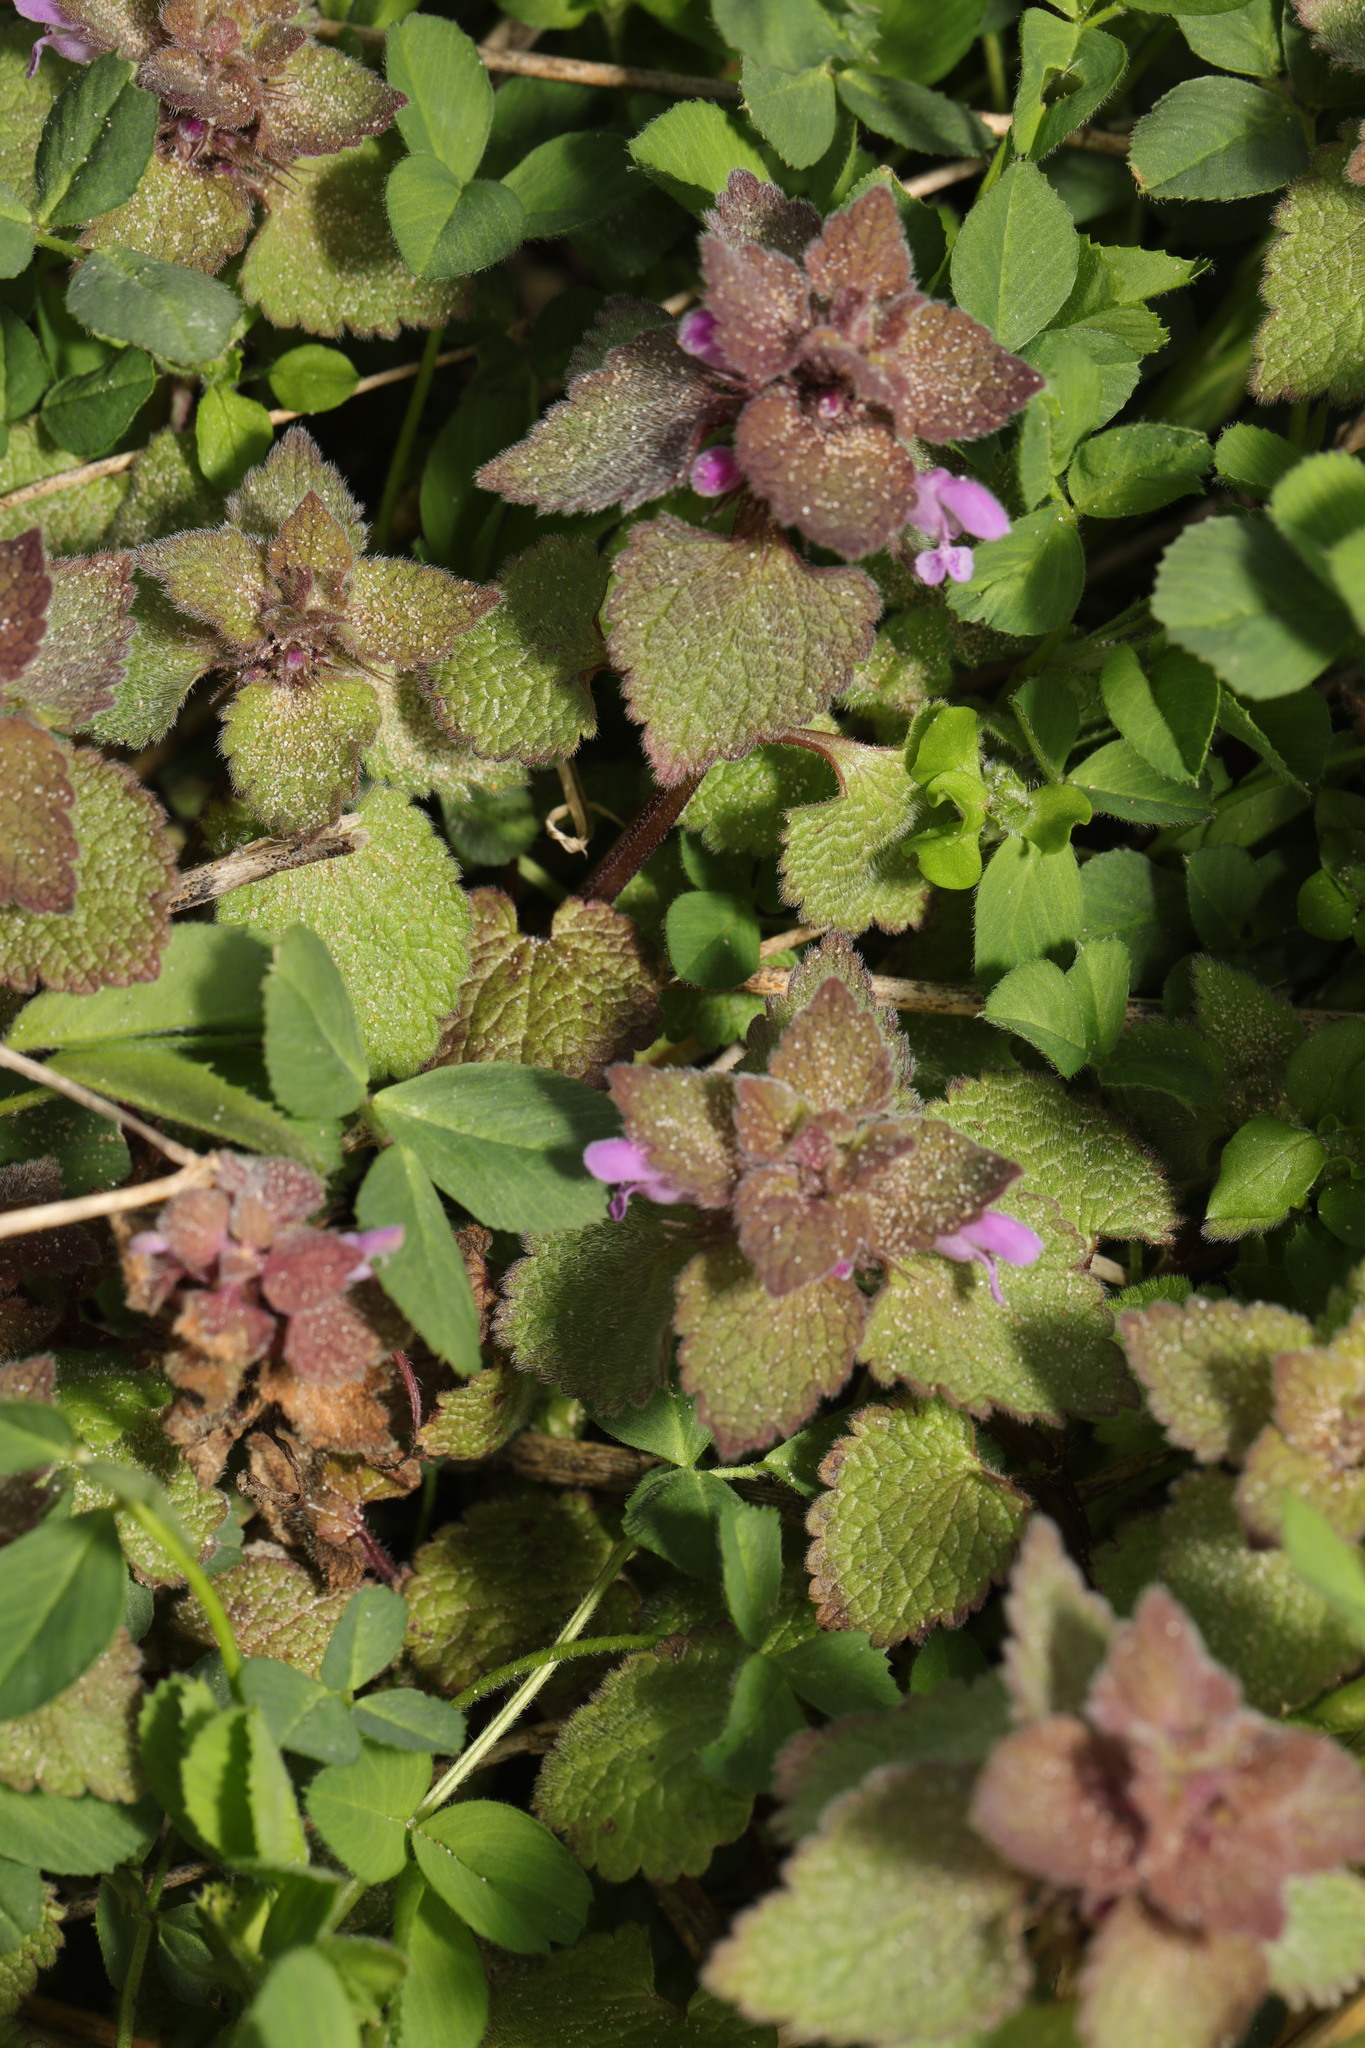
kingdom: Plantae
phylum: Tracheophyta
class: Magnoliopsida
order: Lamiales
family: Lamiaceae
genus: Lamium
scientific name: Lamium purpureum
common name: Red dead-nettle
